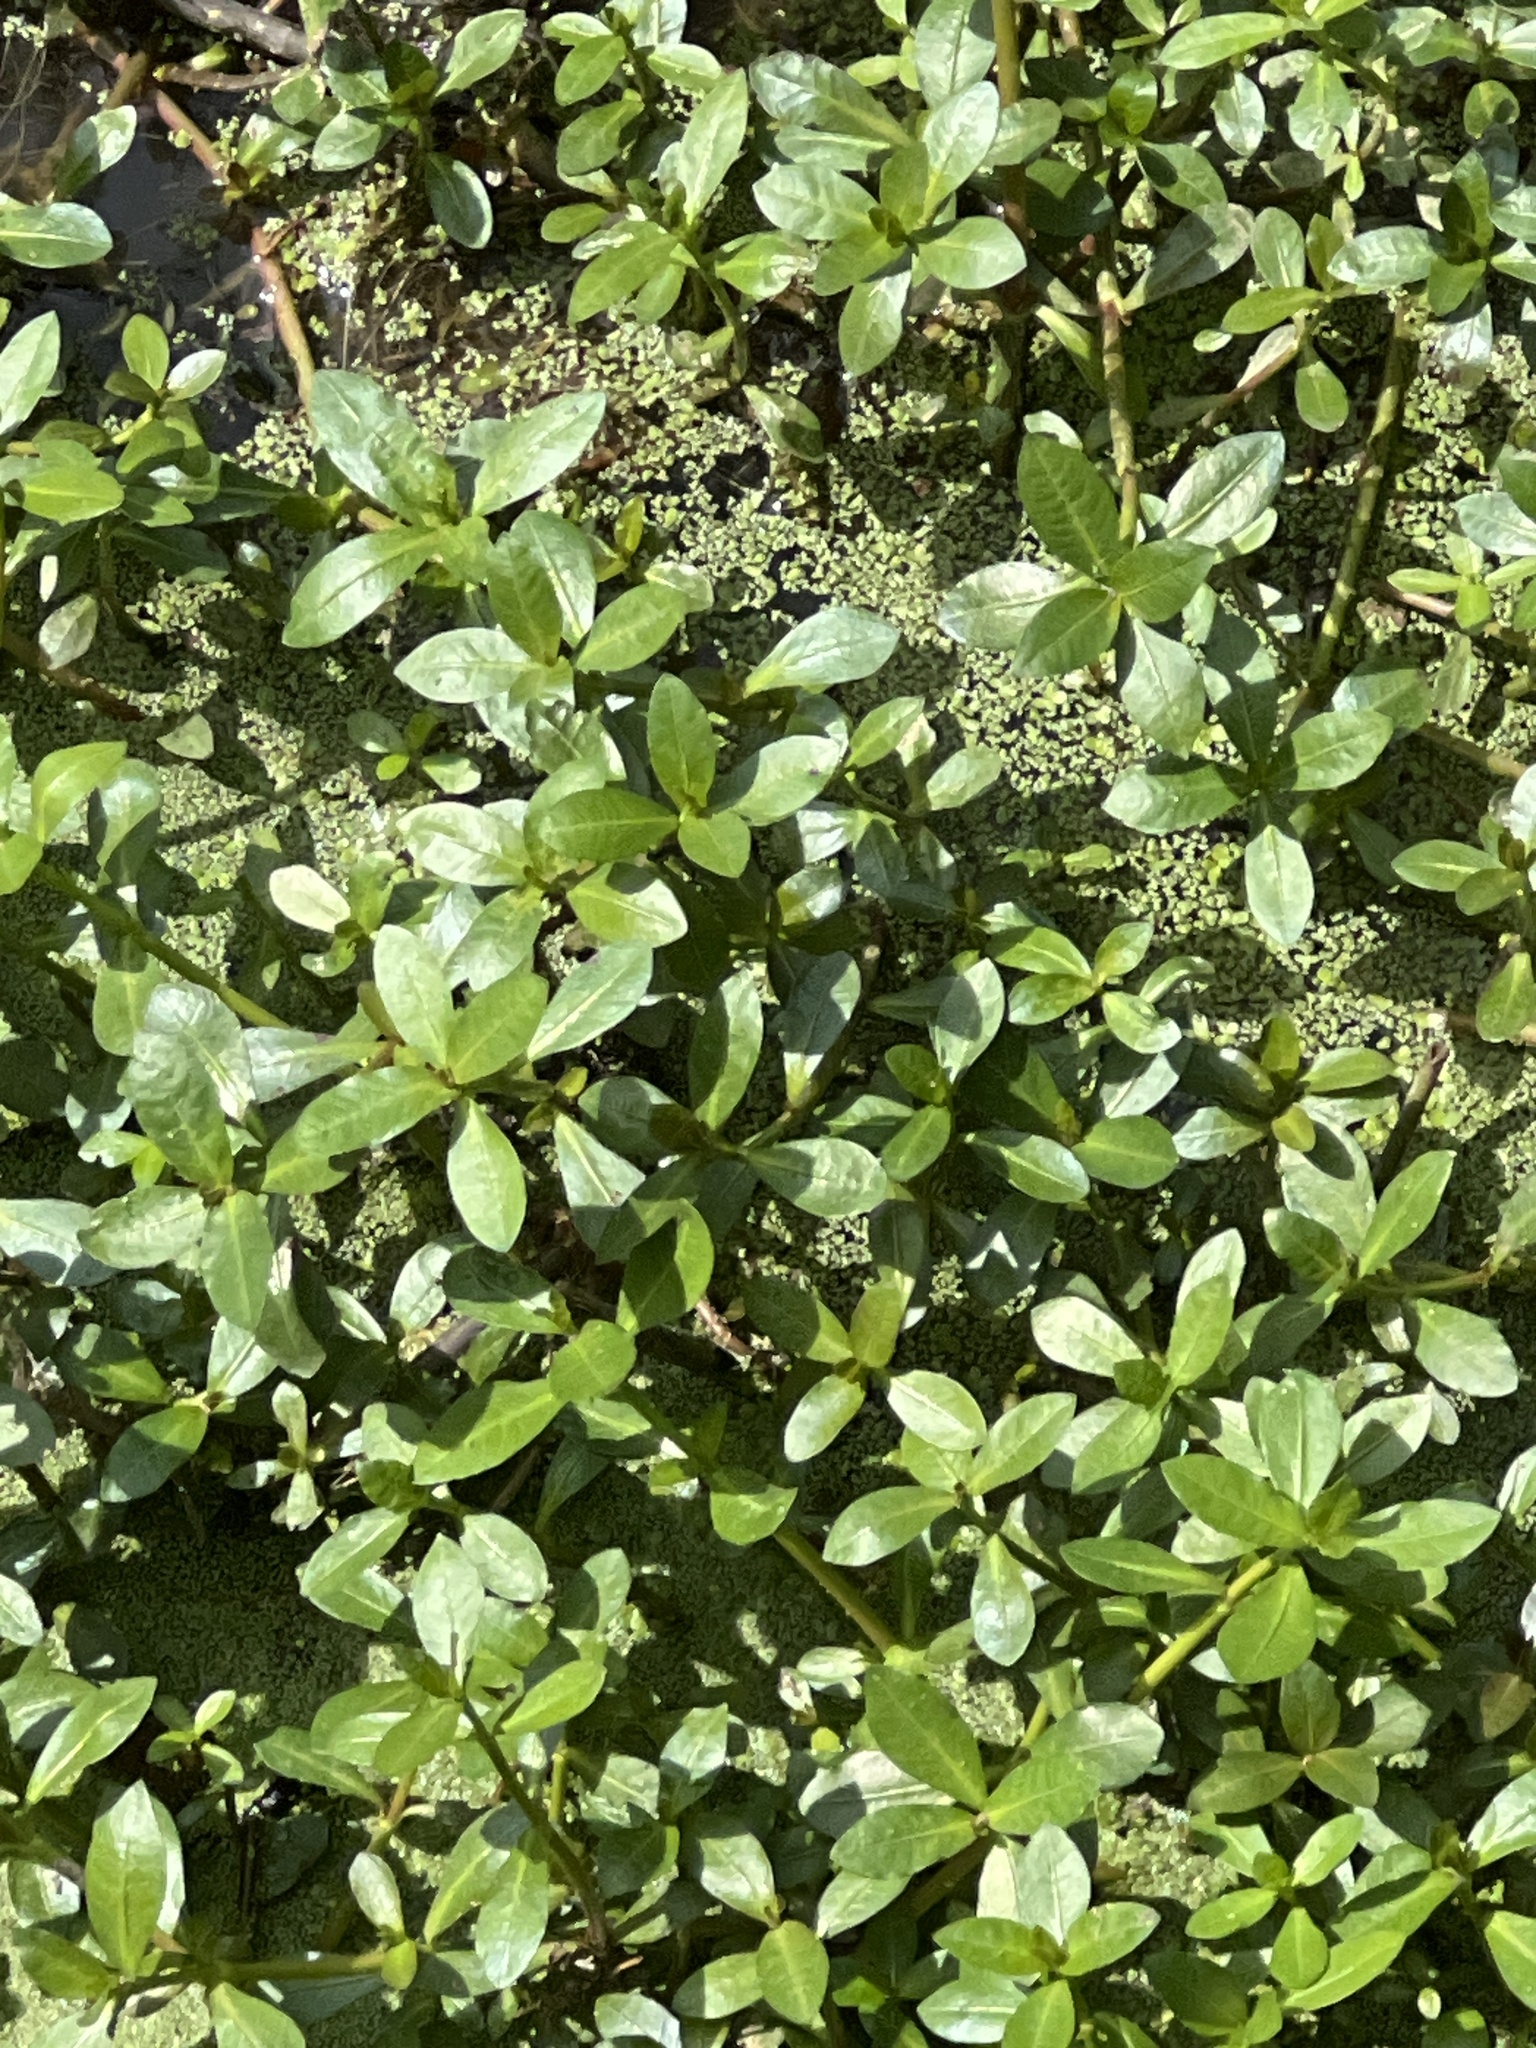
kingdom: Plantae
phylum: Tracheophyta
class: Magnoliopsida
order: Caryophyllales
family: Amaranthaceae
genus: Alternanthera
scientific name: Alternanthera philoxeroides
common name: Alligatorweed
